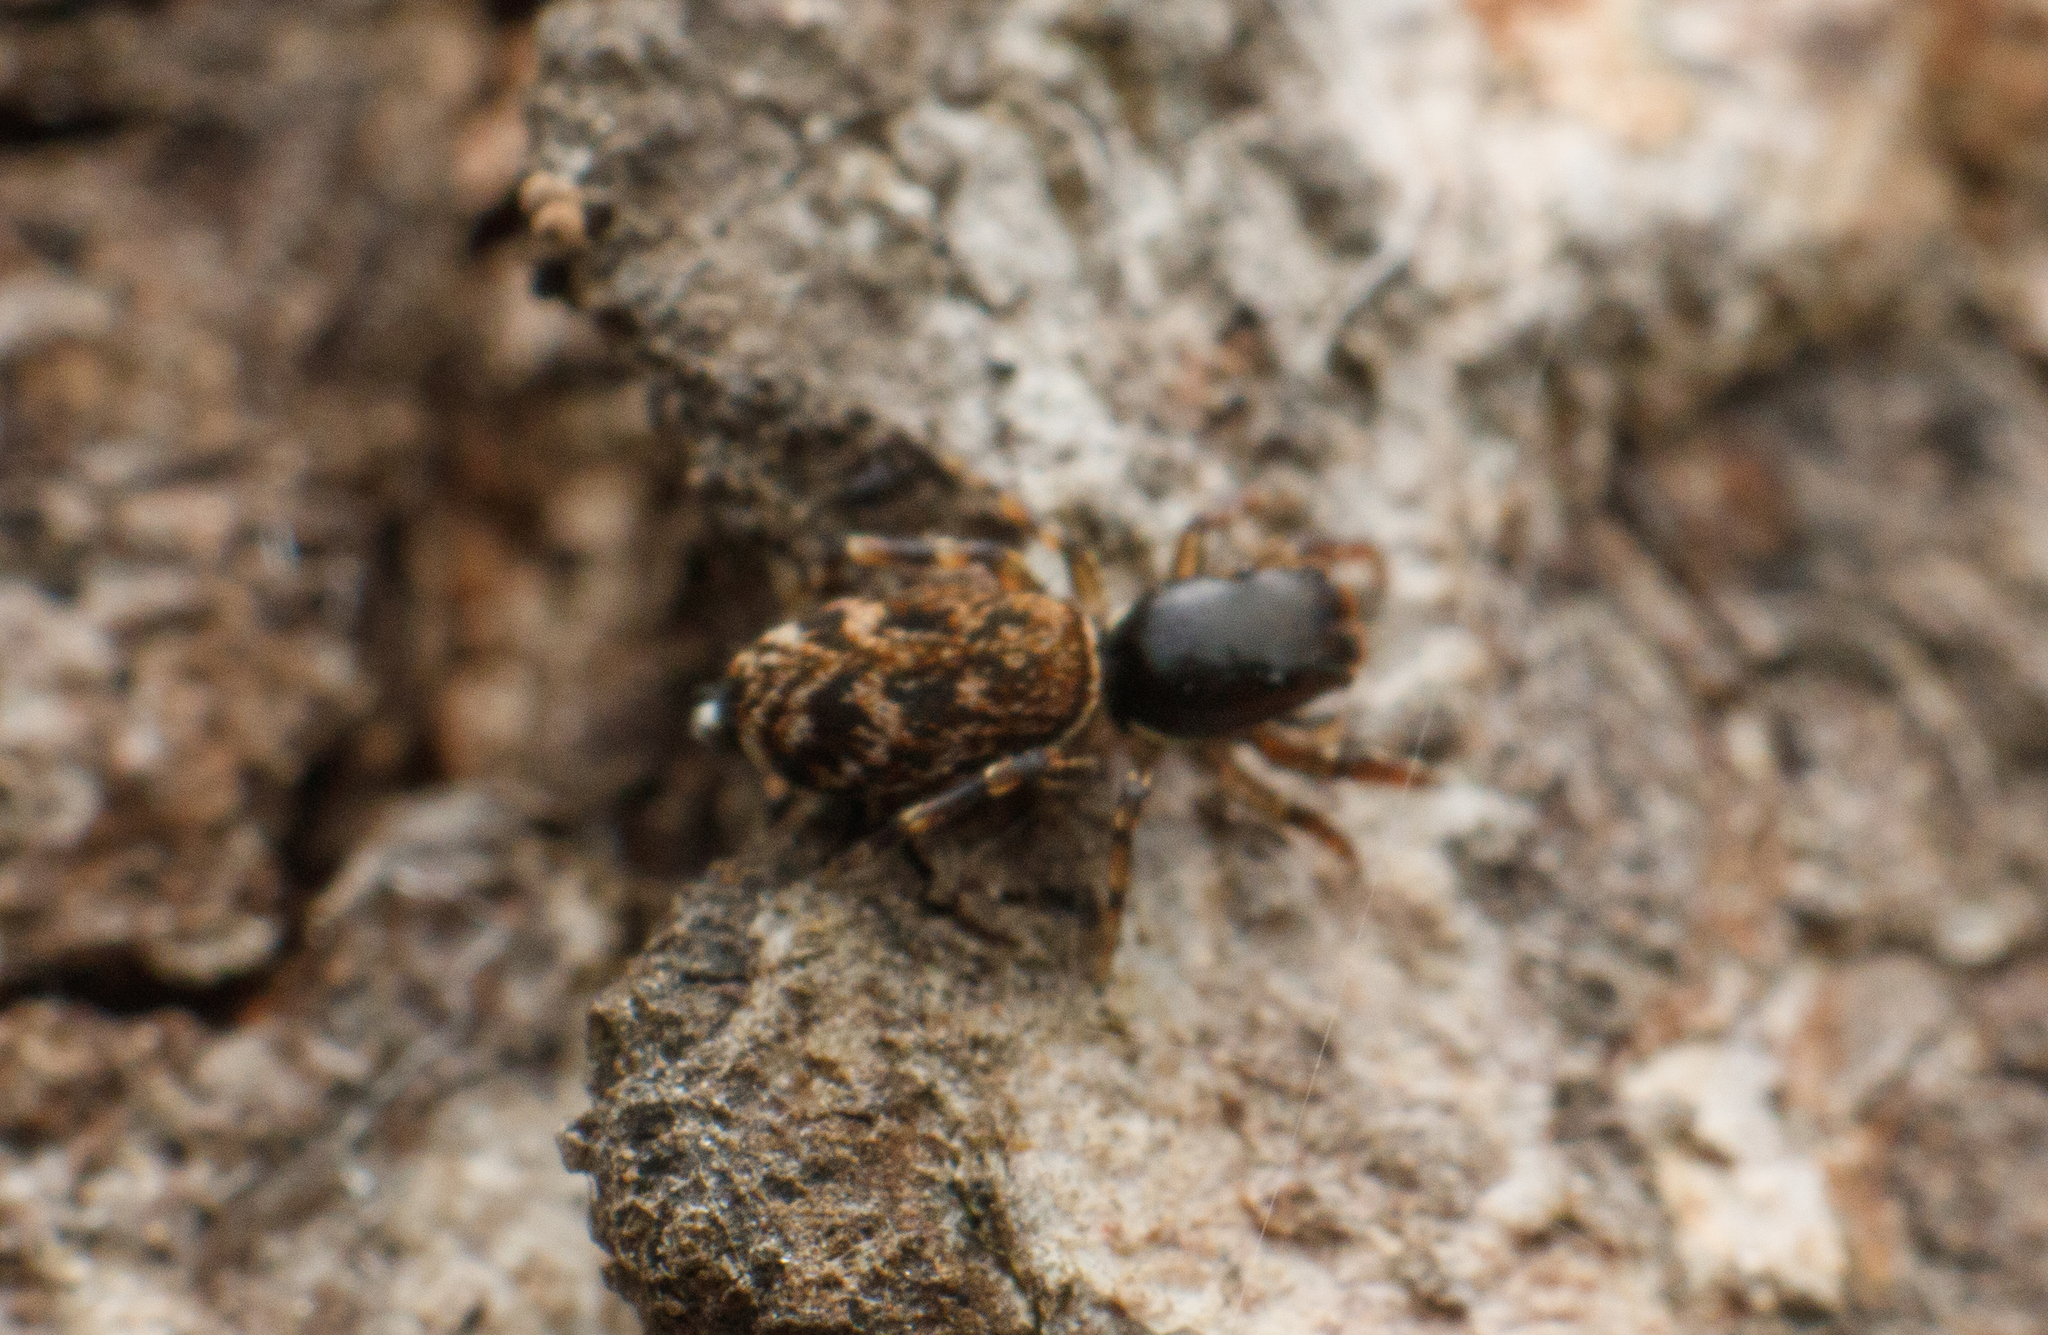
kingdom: Animalia
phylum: Arthropoda
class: Arachnida
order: Araneae
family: Salticidae
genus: Icius
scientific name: Icius kumariae
